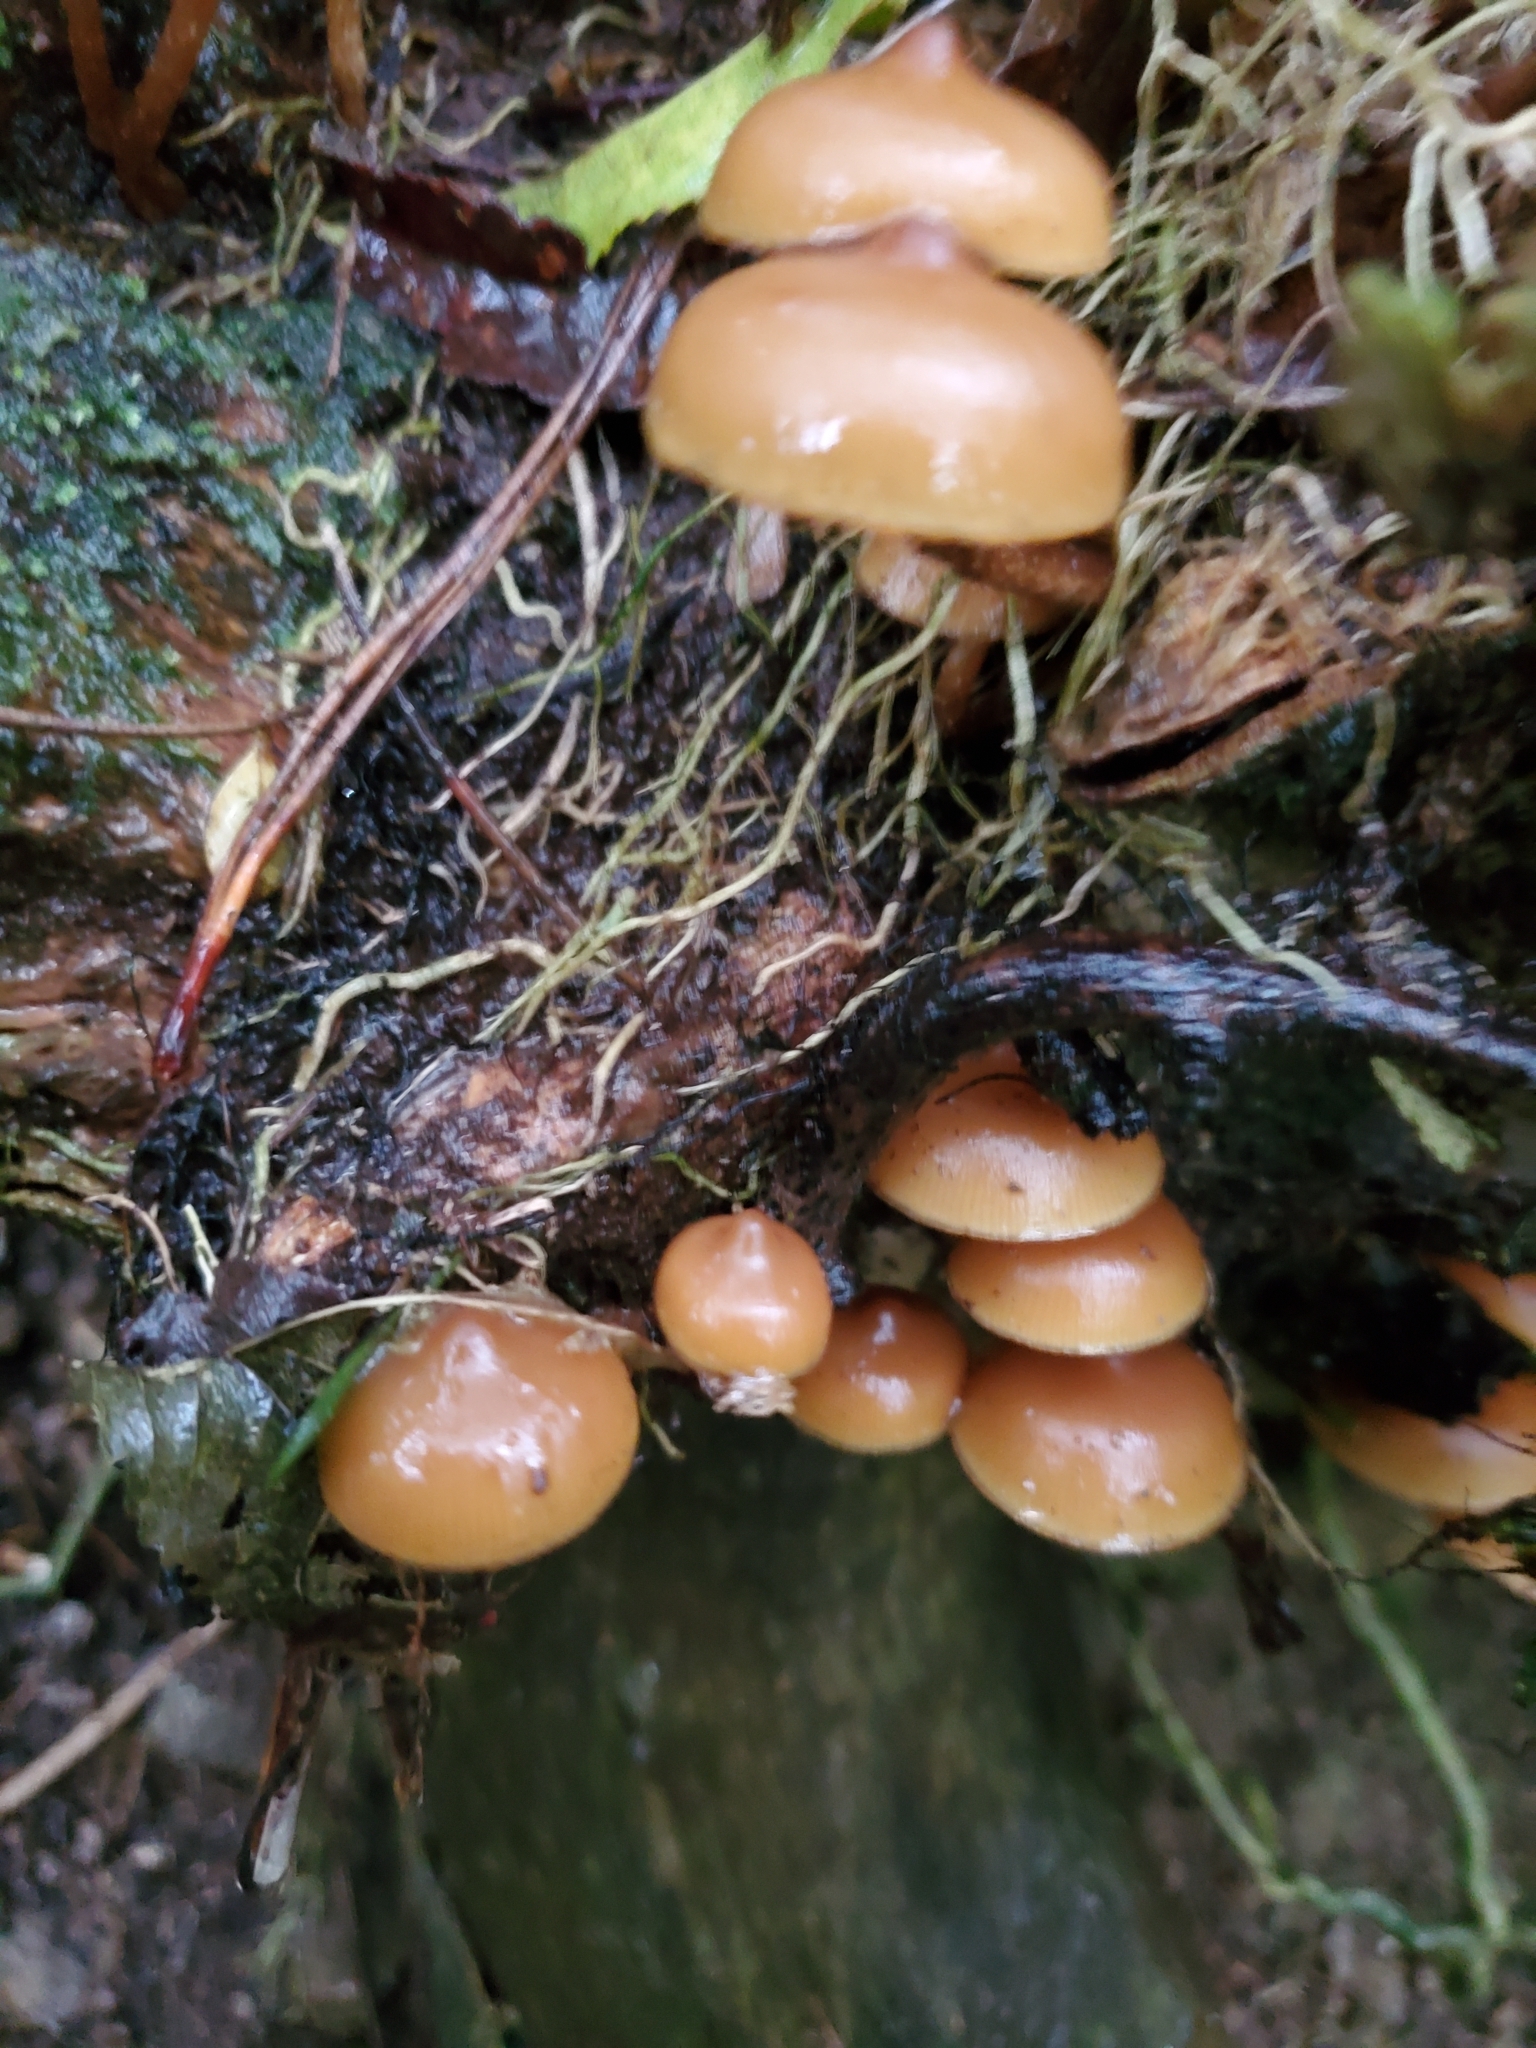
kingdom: Fungi
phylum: Basidiomycota
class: Agaricomycetes
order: Agaricales
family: Hymenogastraceae
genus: Galerina
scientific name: Galerina patagonica
